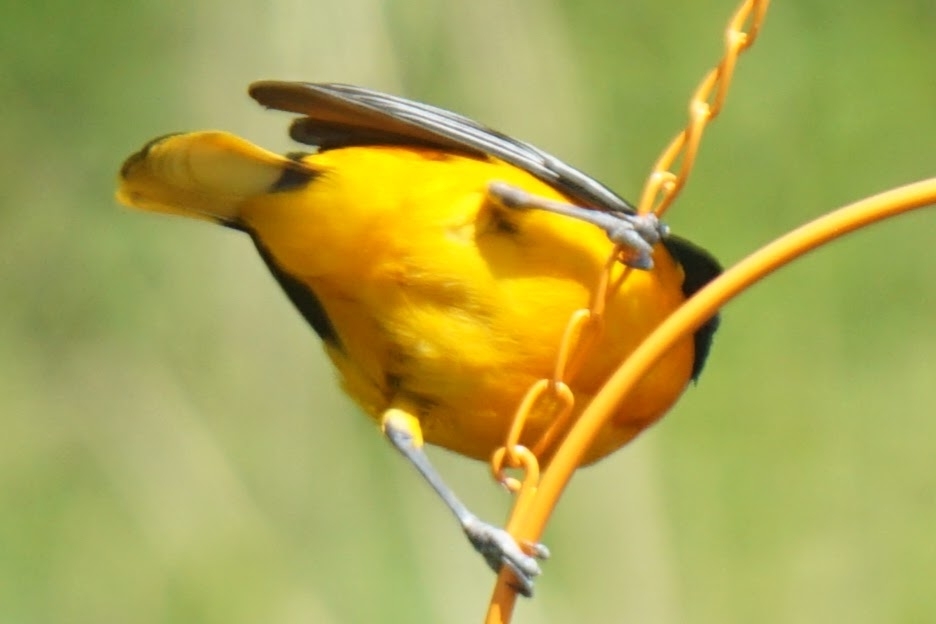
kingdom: Animalia
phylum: Chordata
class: Aves
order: Passeriformes
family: Icteridae
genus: Icterus
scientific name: Icterus galbula
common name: Baltimore oriole
